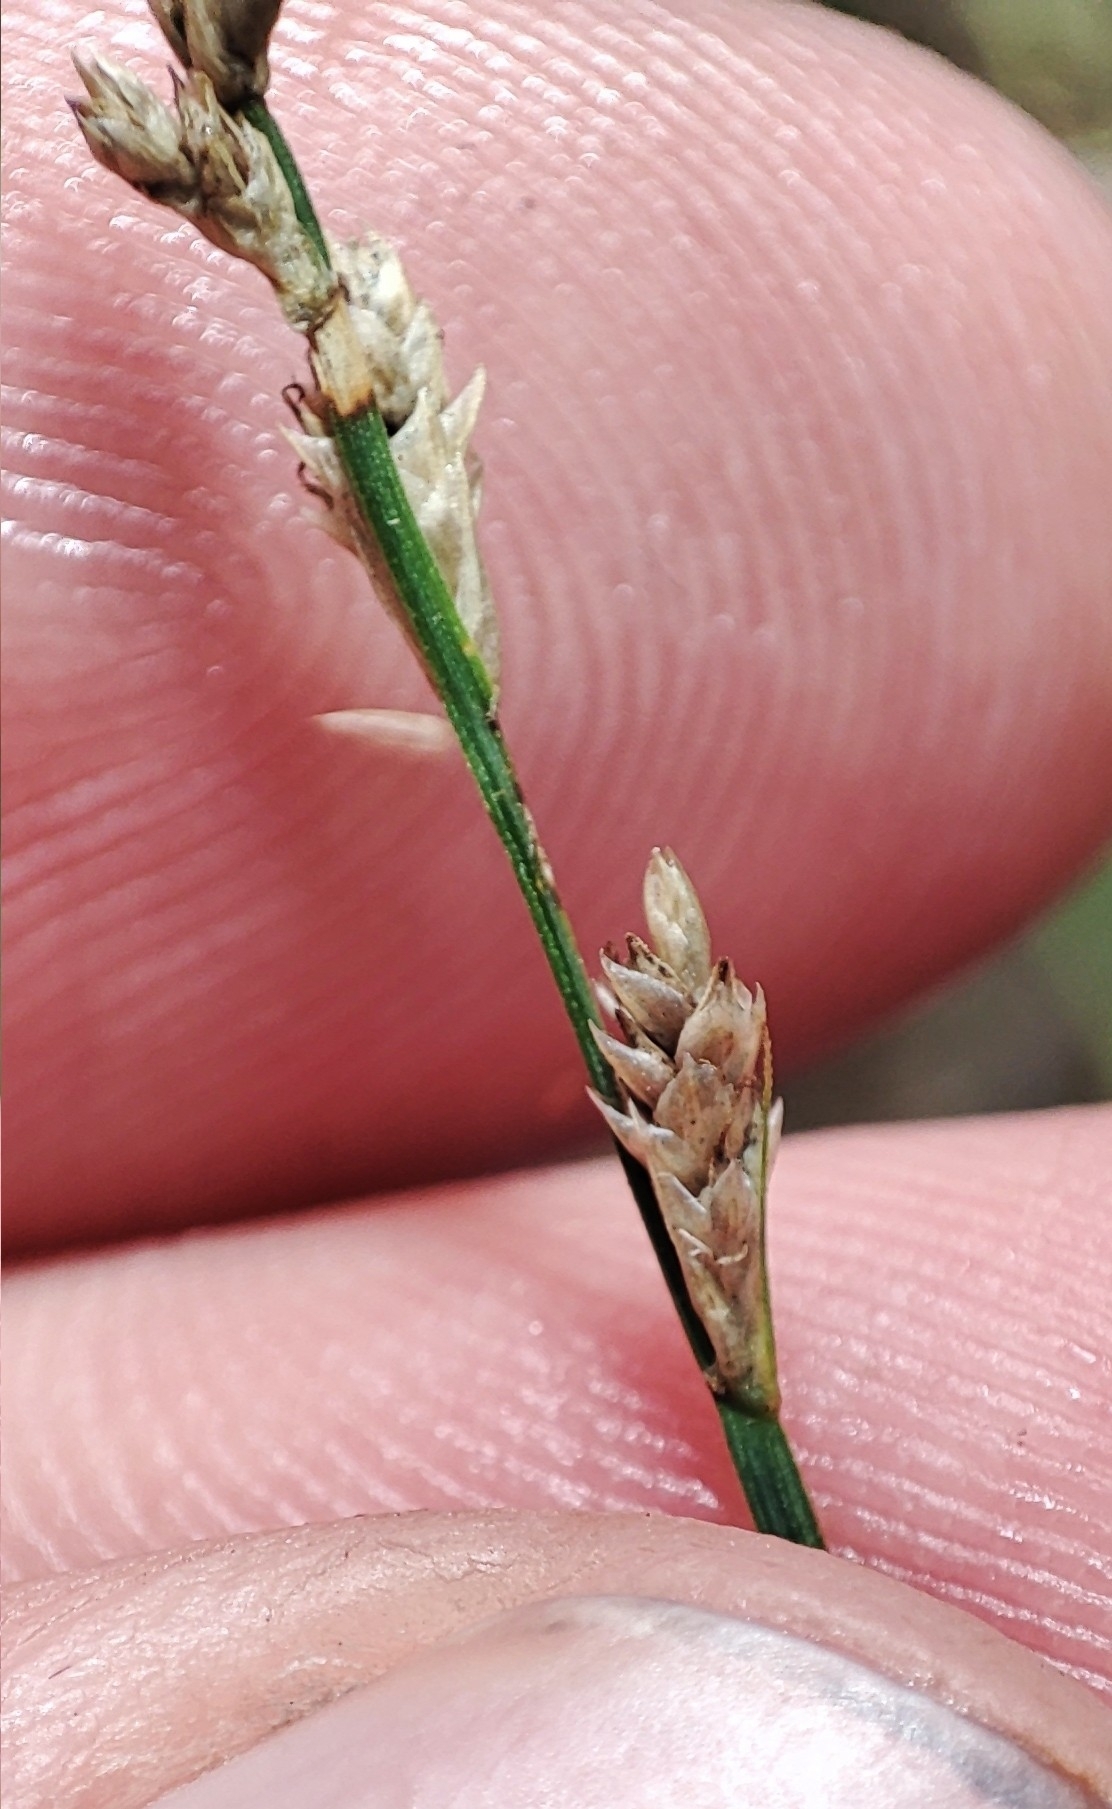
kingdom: Plantae
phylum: Tracheophyta
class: Liliopsida
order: Poales
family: Cyperaceae
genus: Carex
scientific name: Carex canescens
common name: White sedge
